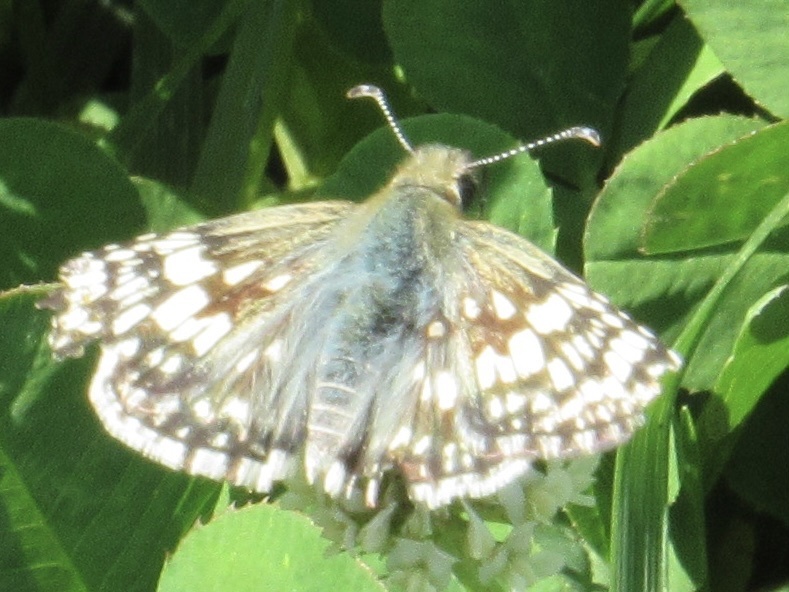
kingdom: Animalia
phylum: Arthropoda
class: Insecta
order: Lepidoptera
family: Hesperiidae
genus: Burnsius
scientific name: Burnsius communis
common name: Common checkered-skipper
